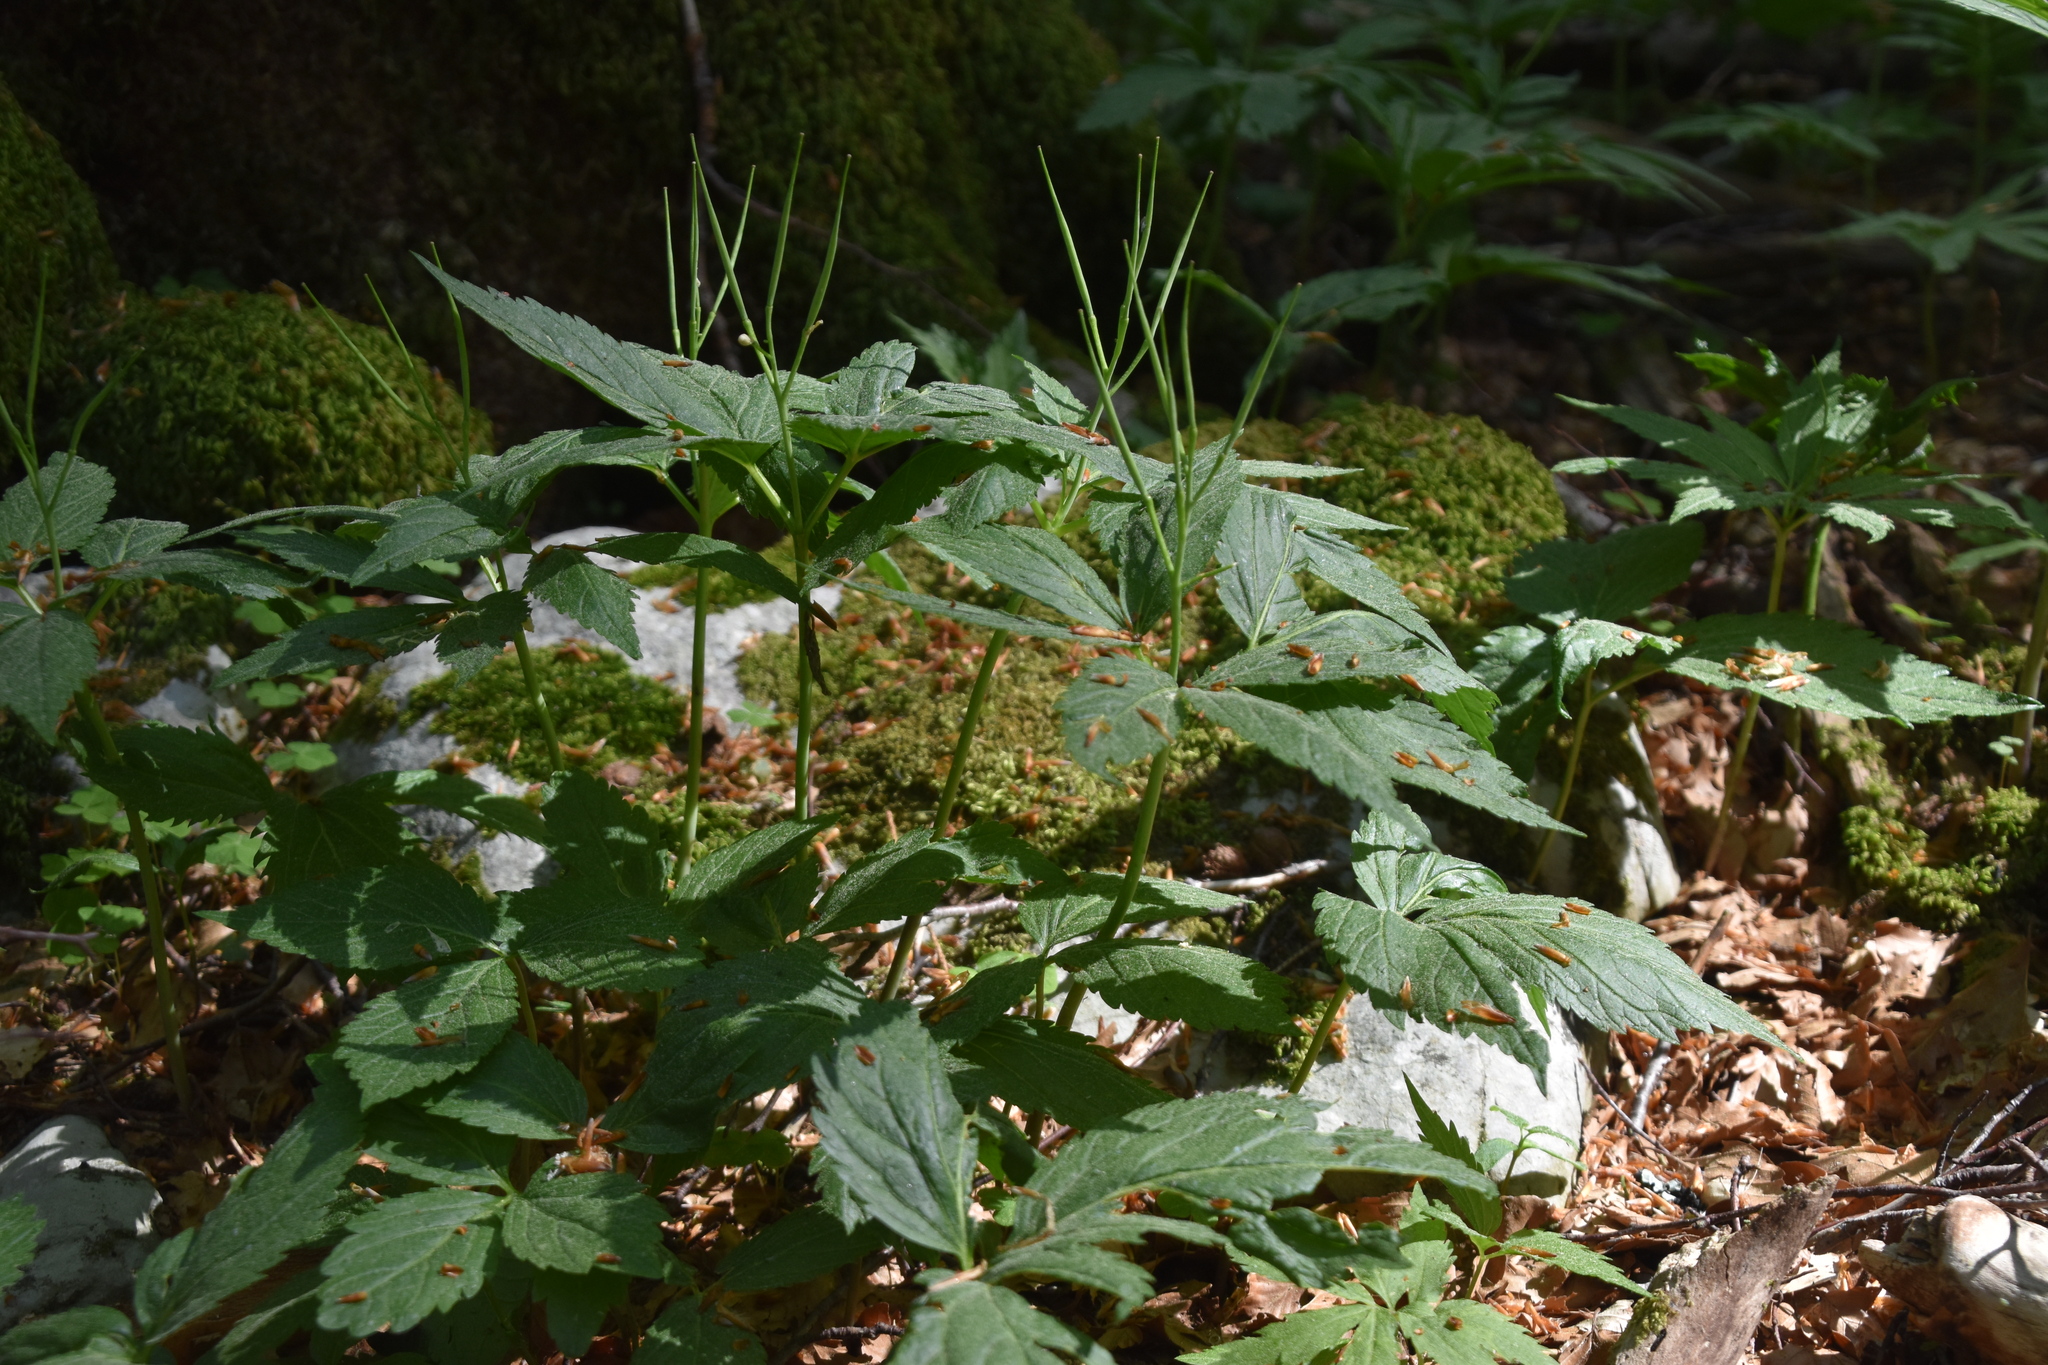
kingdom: Plantae
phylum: Tracheophyta
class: Magnoliopsida
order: Brassicales
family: Brassicaceae
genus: Cardamine
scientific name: Cardamine enneaphyllos
